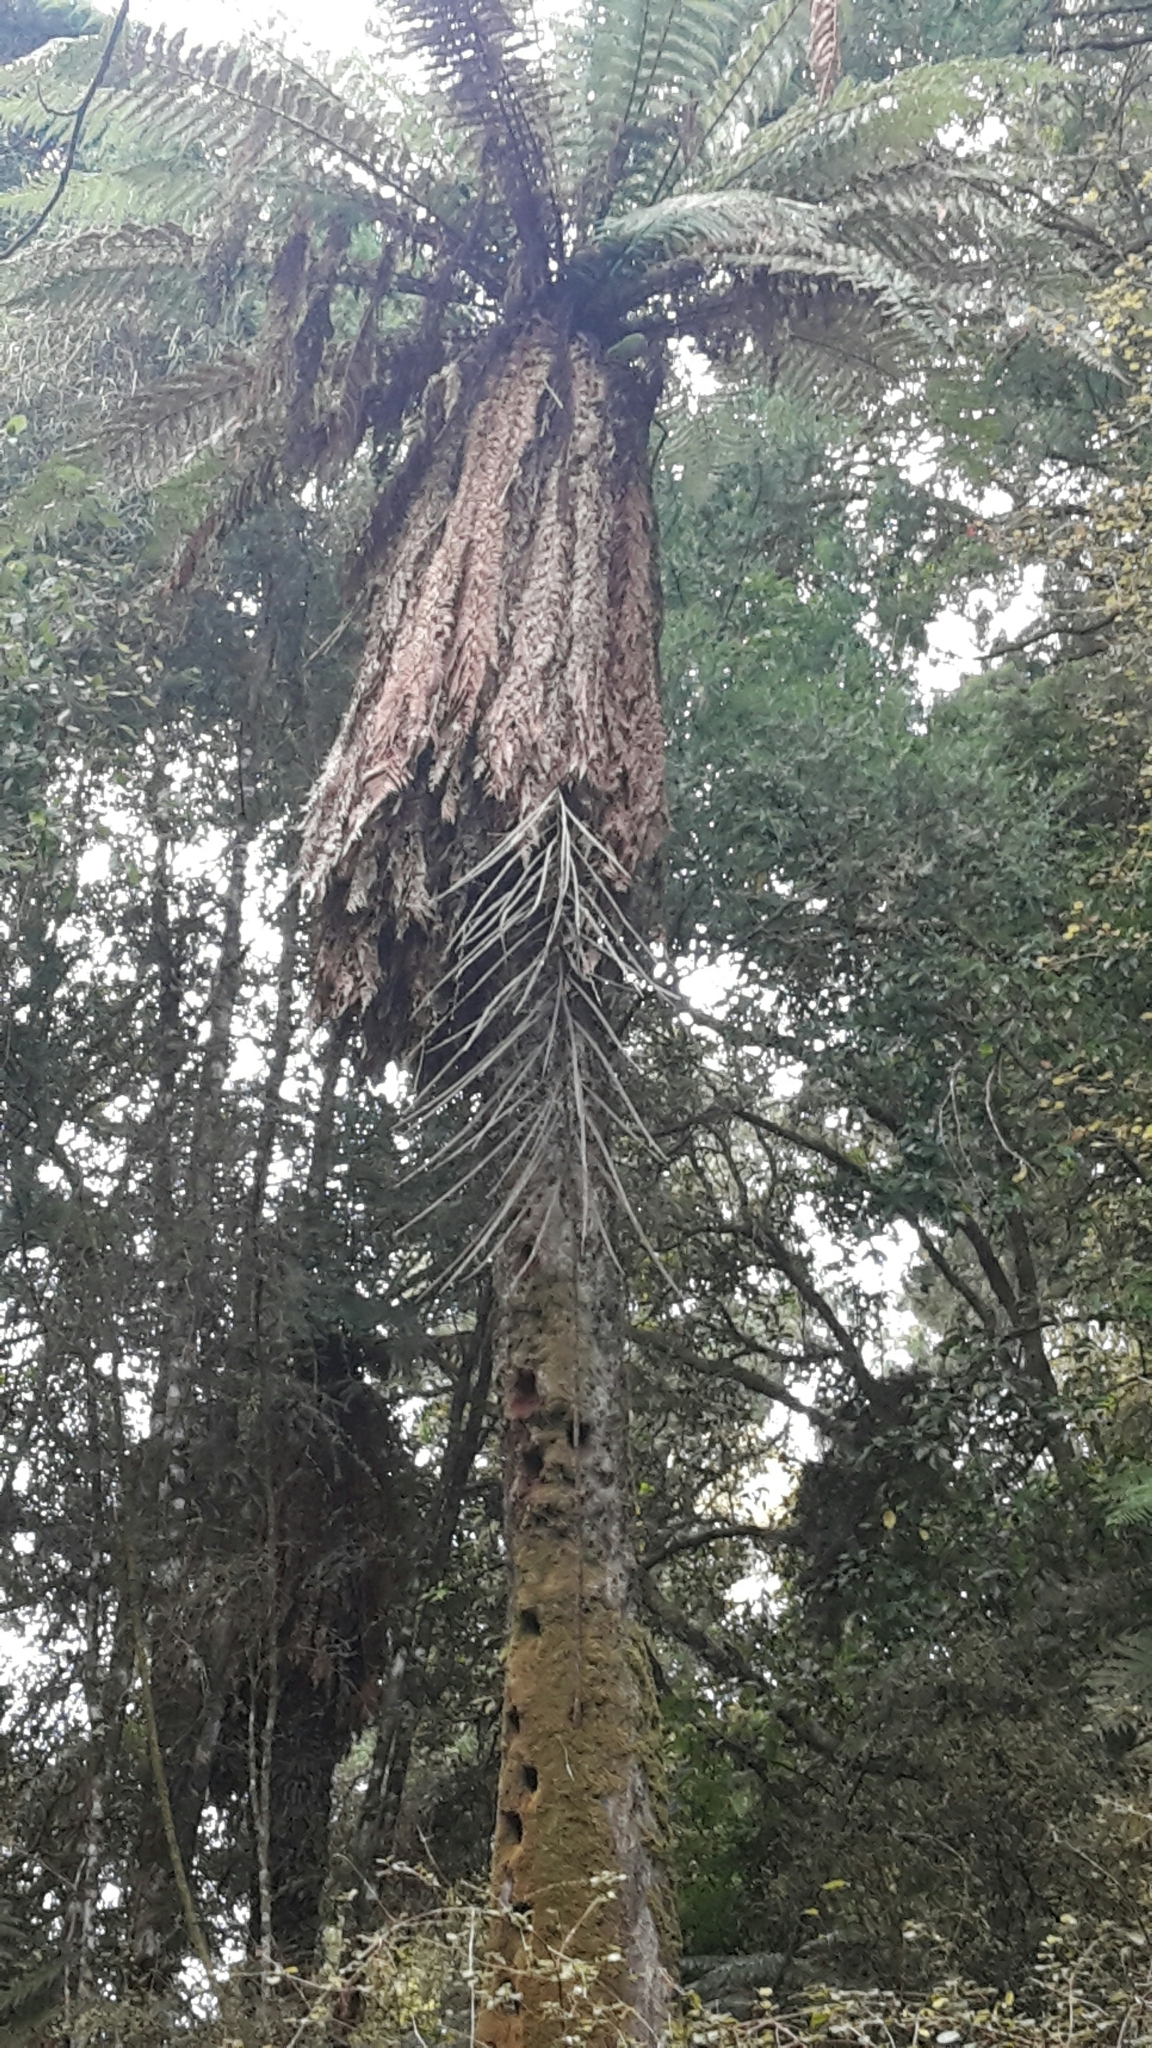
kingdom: Plantae
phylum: Tracheophyta
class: Polypodiopsida
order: Cyatheales
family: Dicksoniaceae
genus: Dicksonia
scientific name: Dicksonia fibrosa
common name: Golden tree fern
